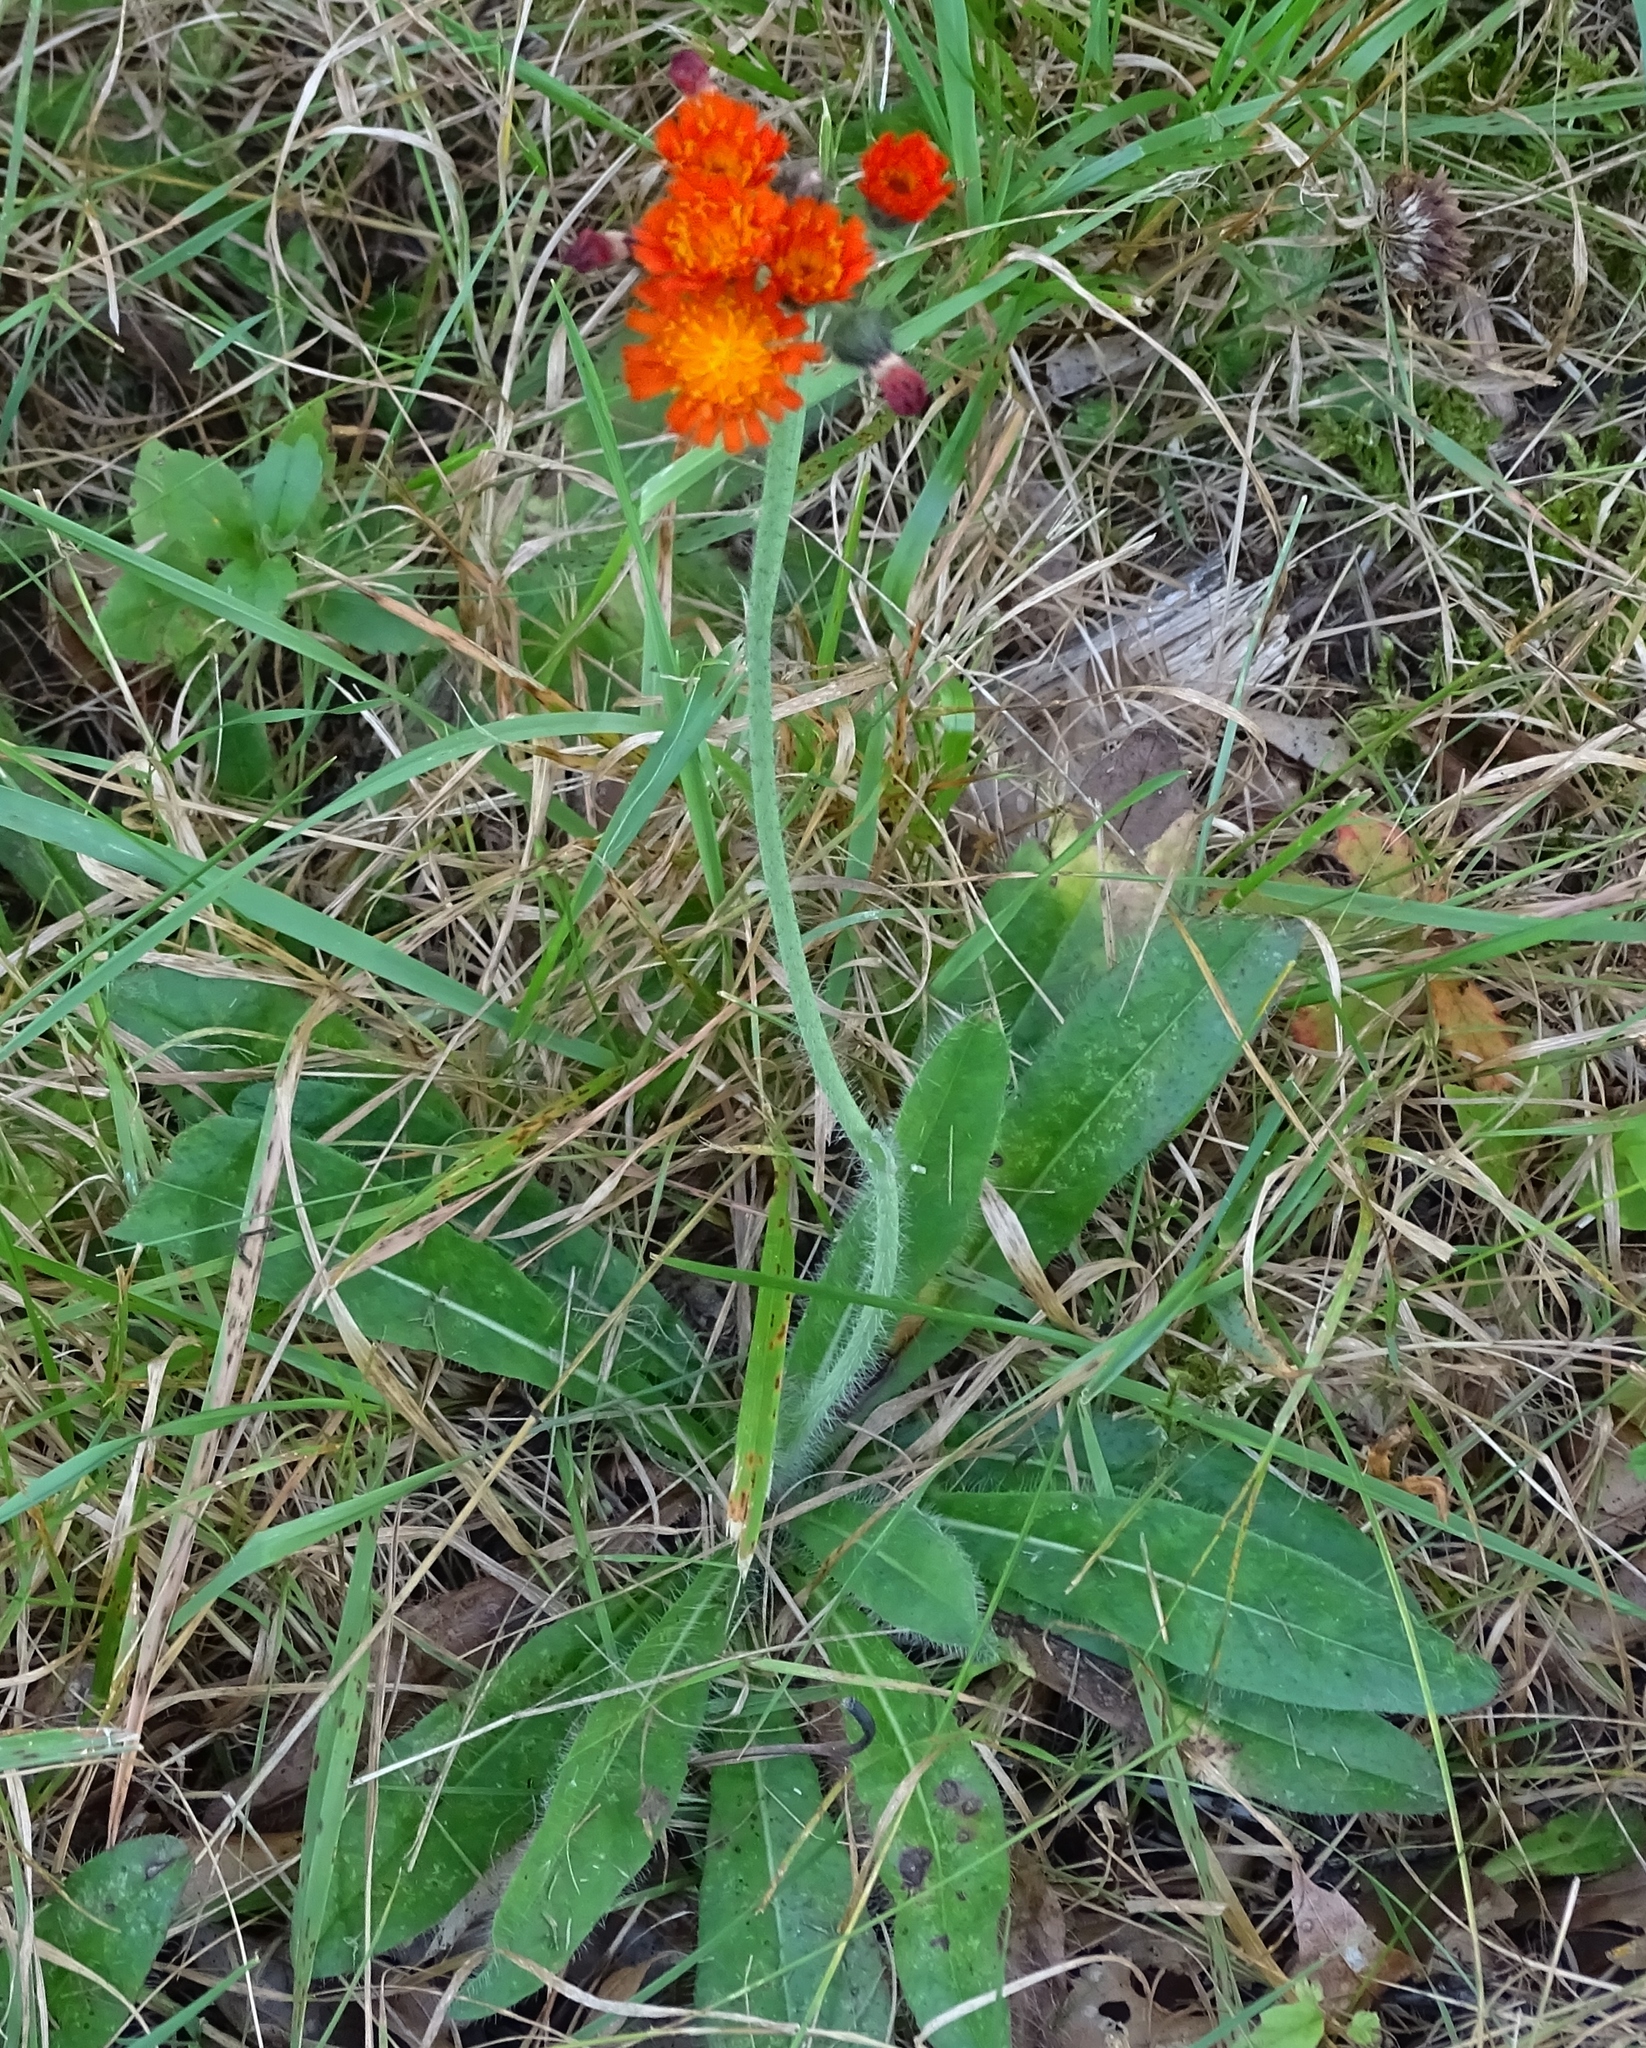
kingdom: Plantae
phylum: Tracheophyta
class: Magnoliopsida
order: Asterales
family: Asteraceae
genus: Pilosella
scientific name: Pilosella aurantiaca
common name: Fox-and-cubs
